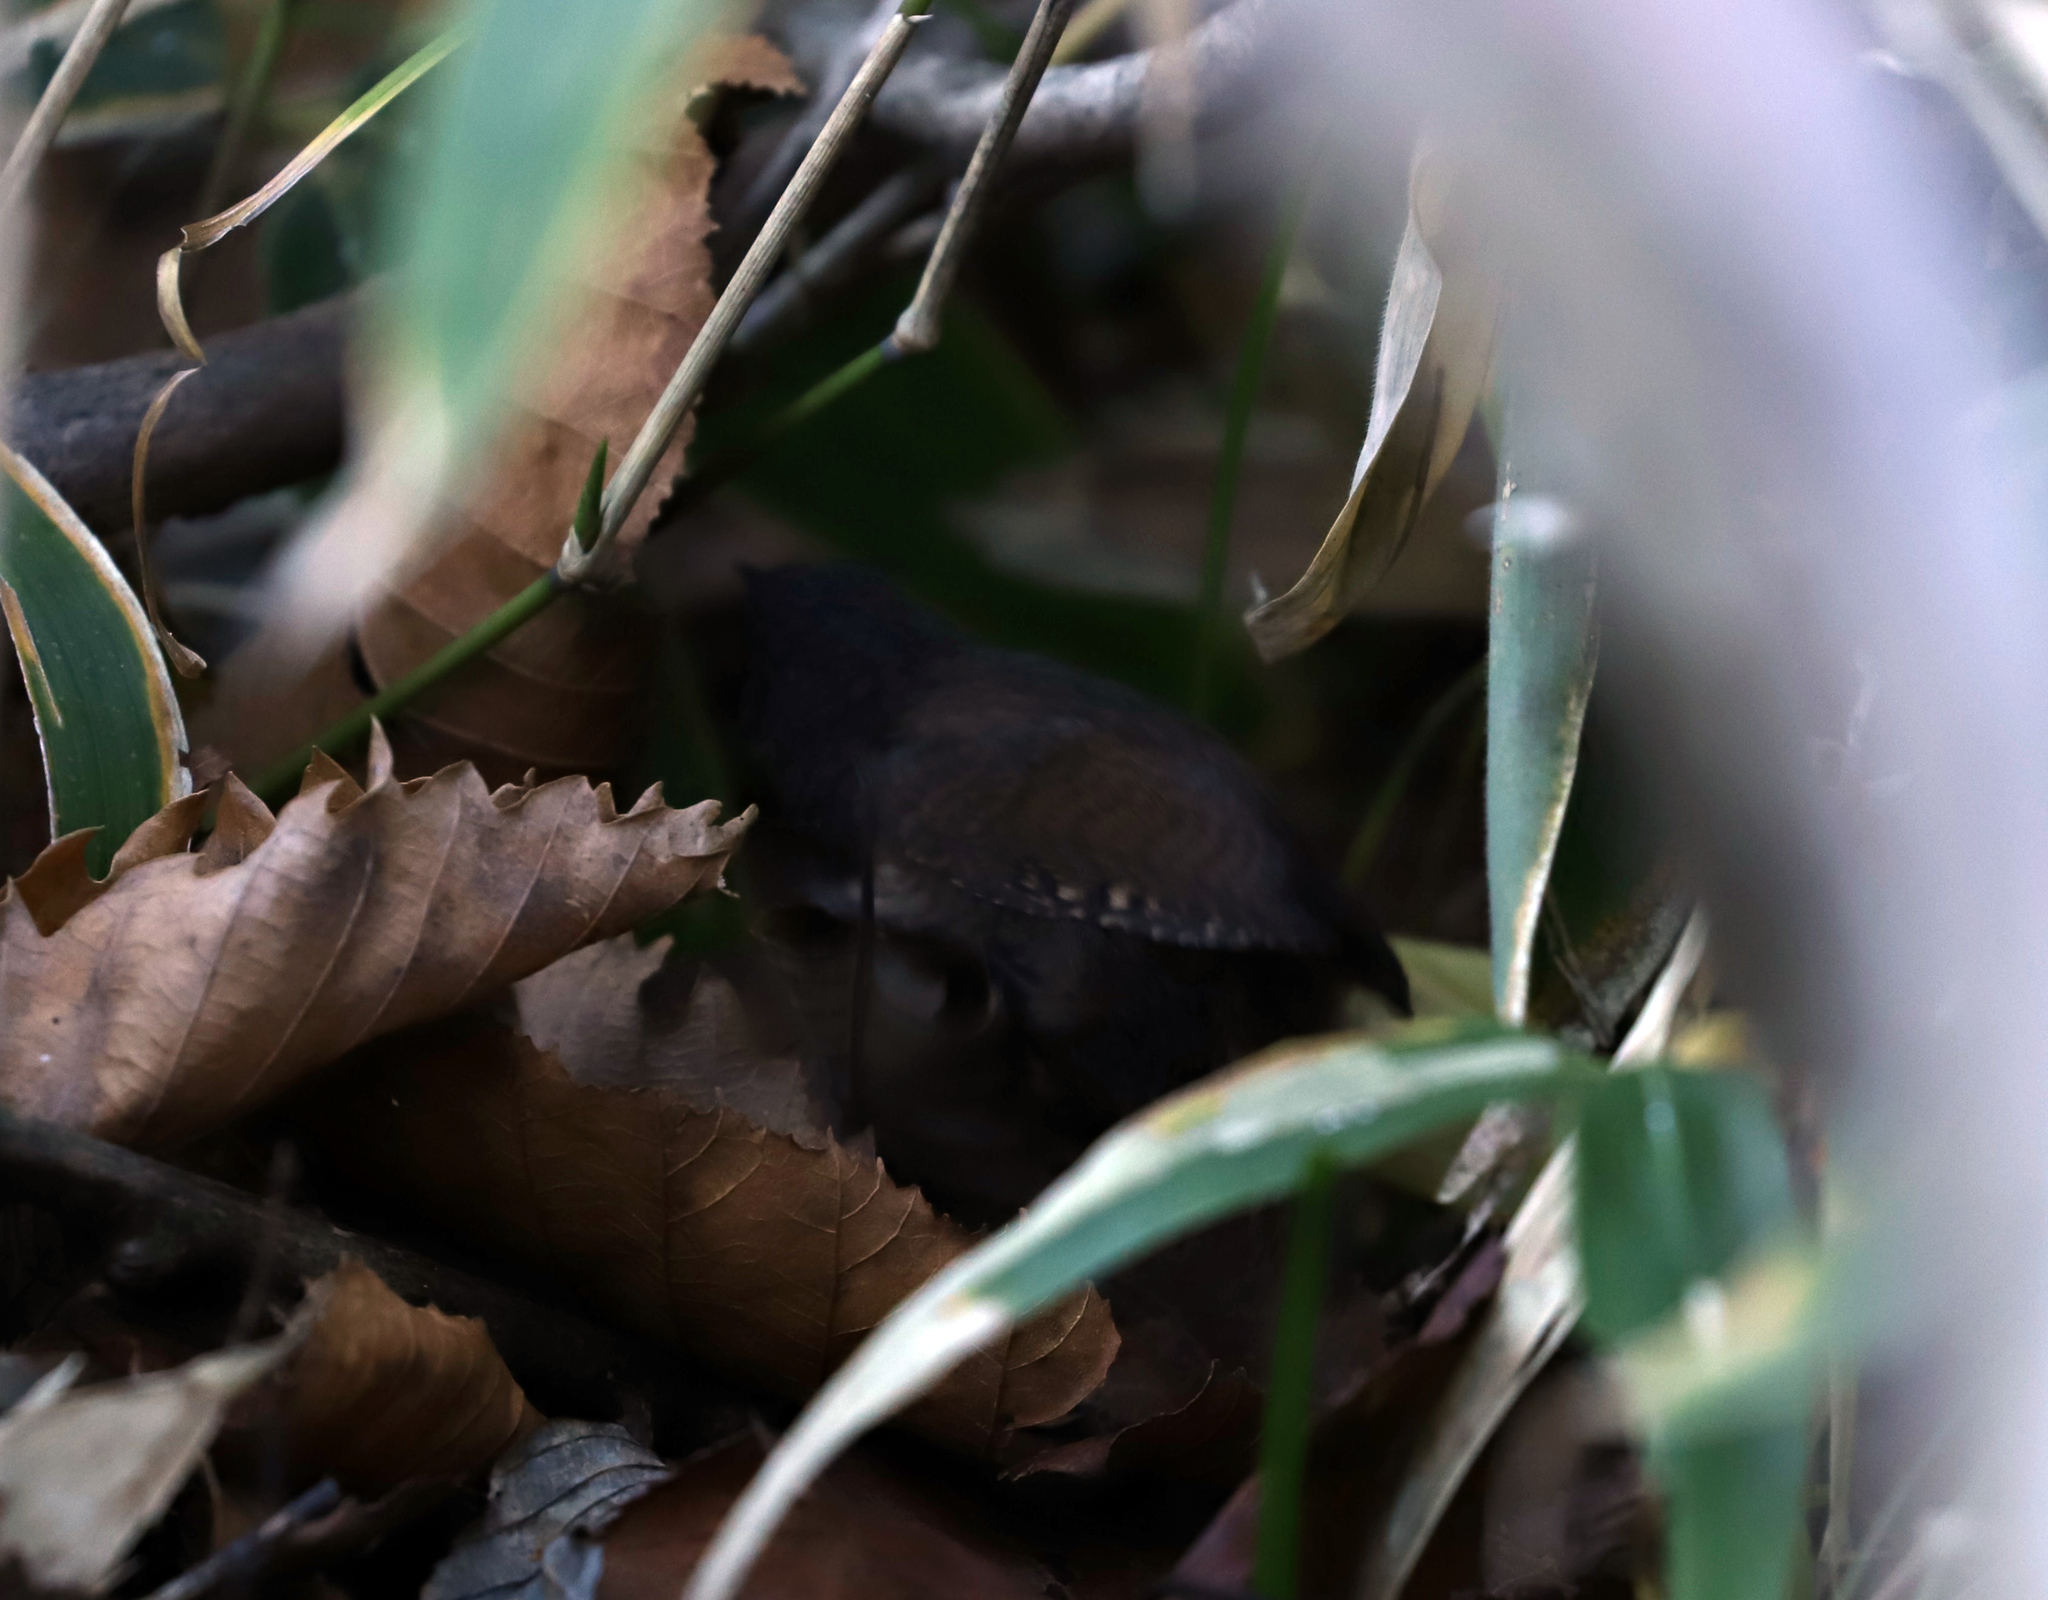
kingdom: Animalia
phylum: Chordata
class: Aves
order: Passeriformes
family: Troglodytidae
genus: Troglodytes
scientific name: Troglodytes troglodytes
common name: Eurasian wren
